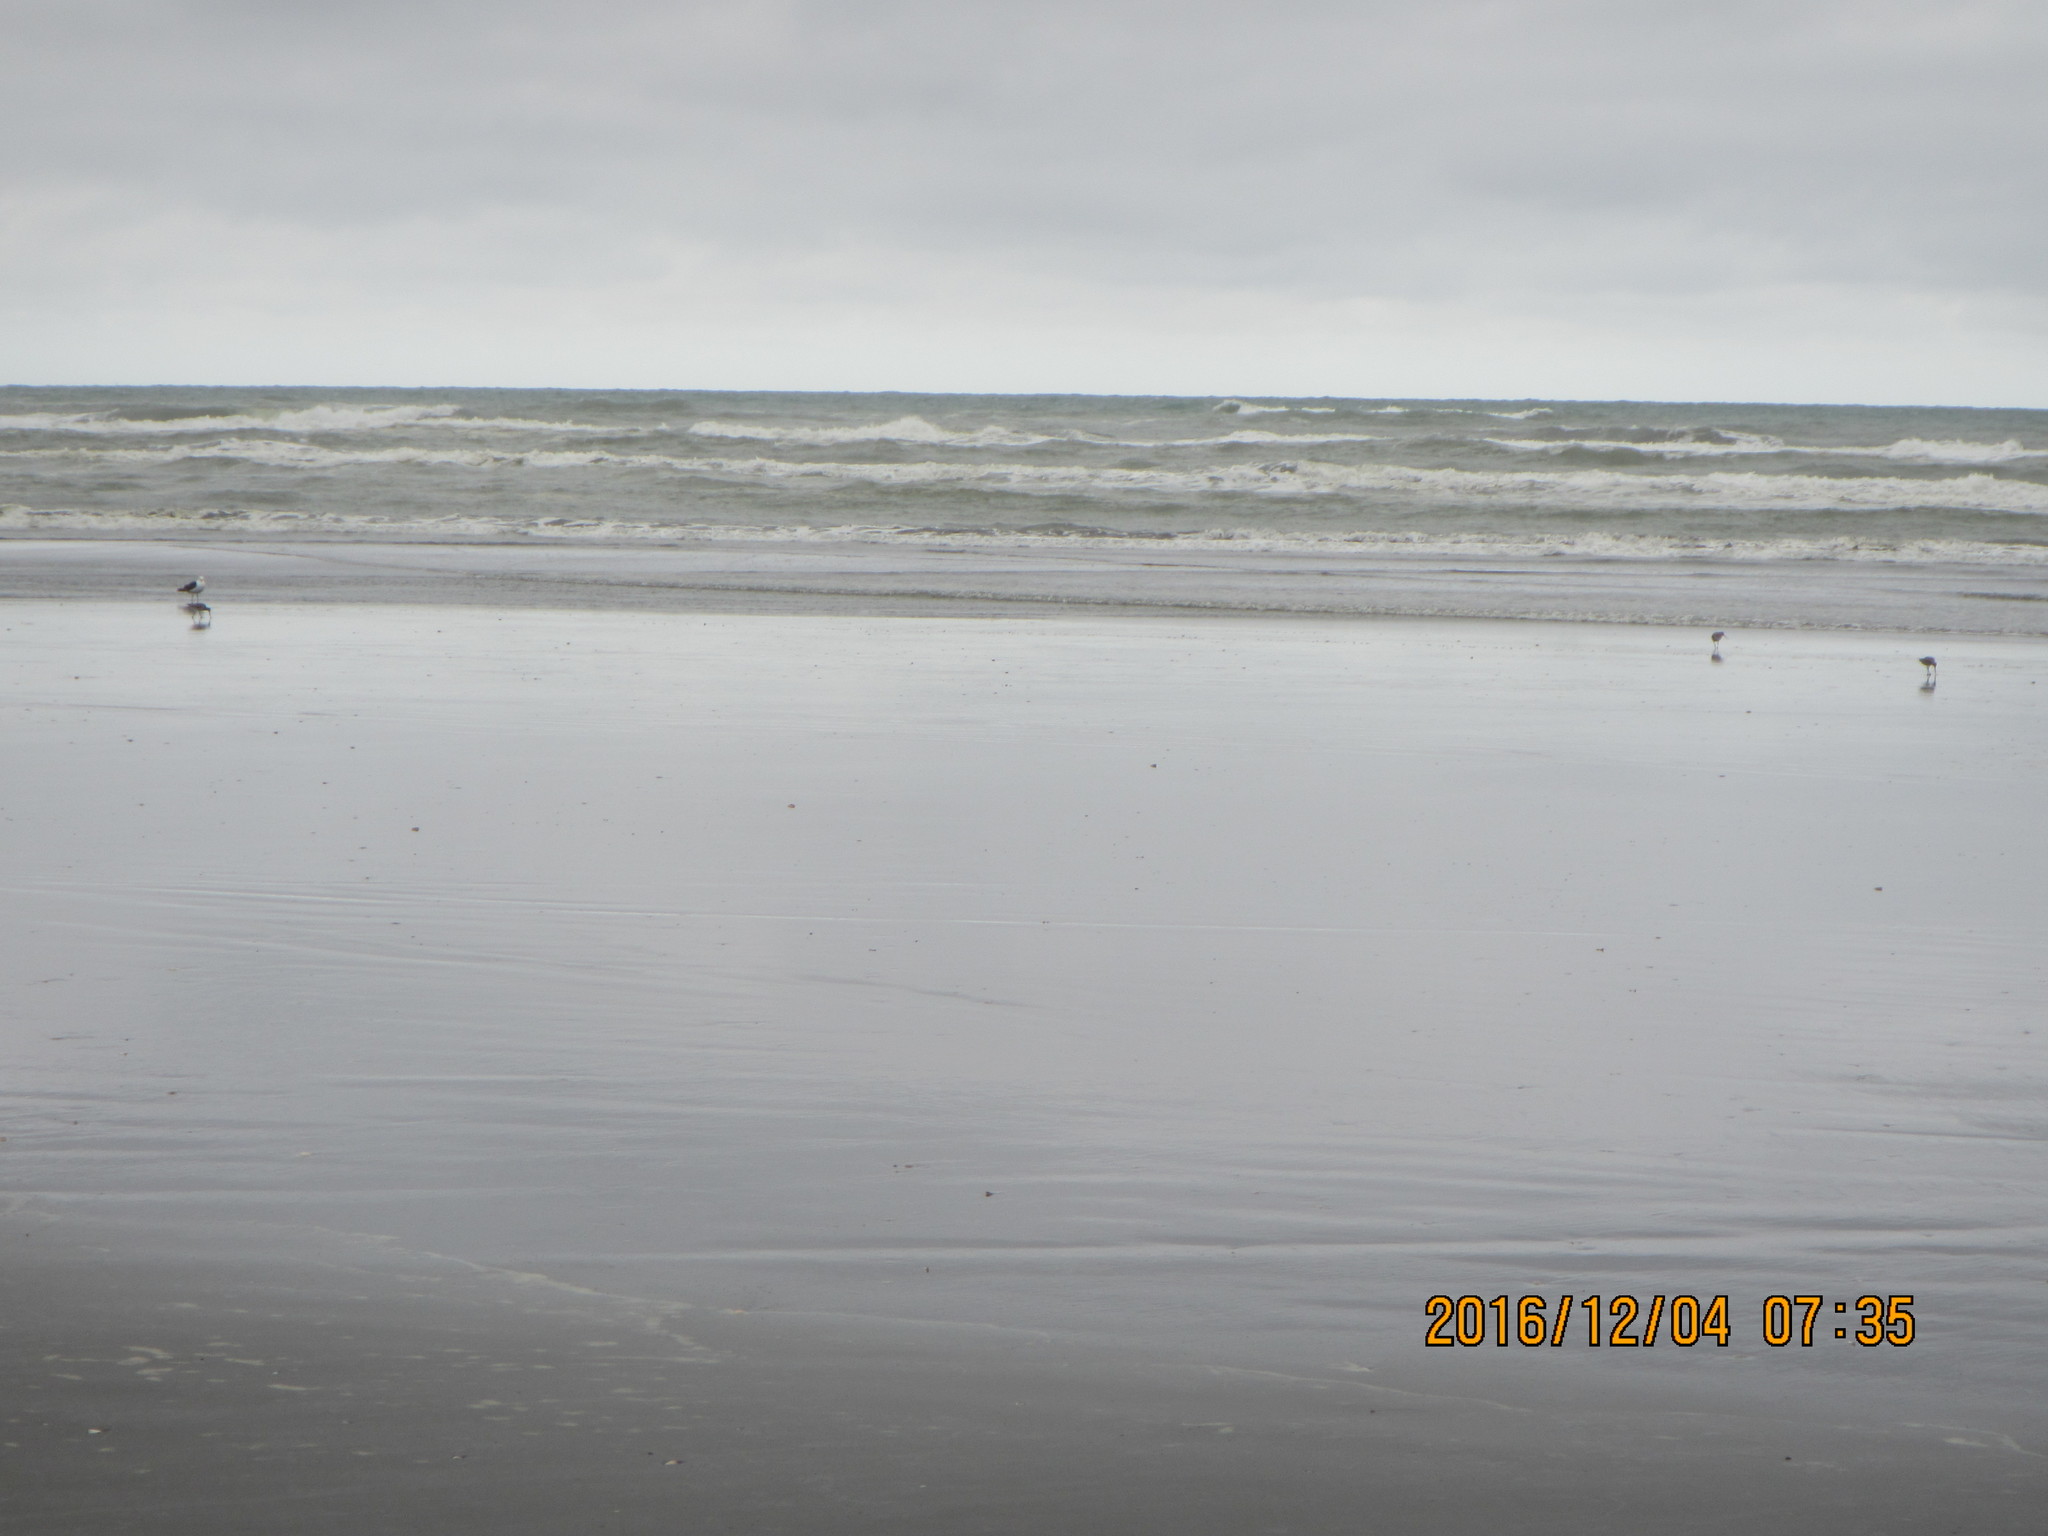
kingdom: Animalia
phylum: Chordata
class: Aves
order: Charadriiformes
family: Scolopacidae
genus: Limosa
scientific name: Limosa lapponica
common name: Bar-tailed godwit
